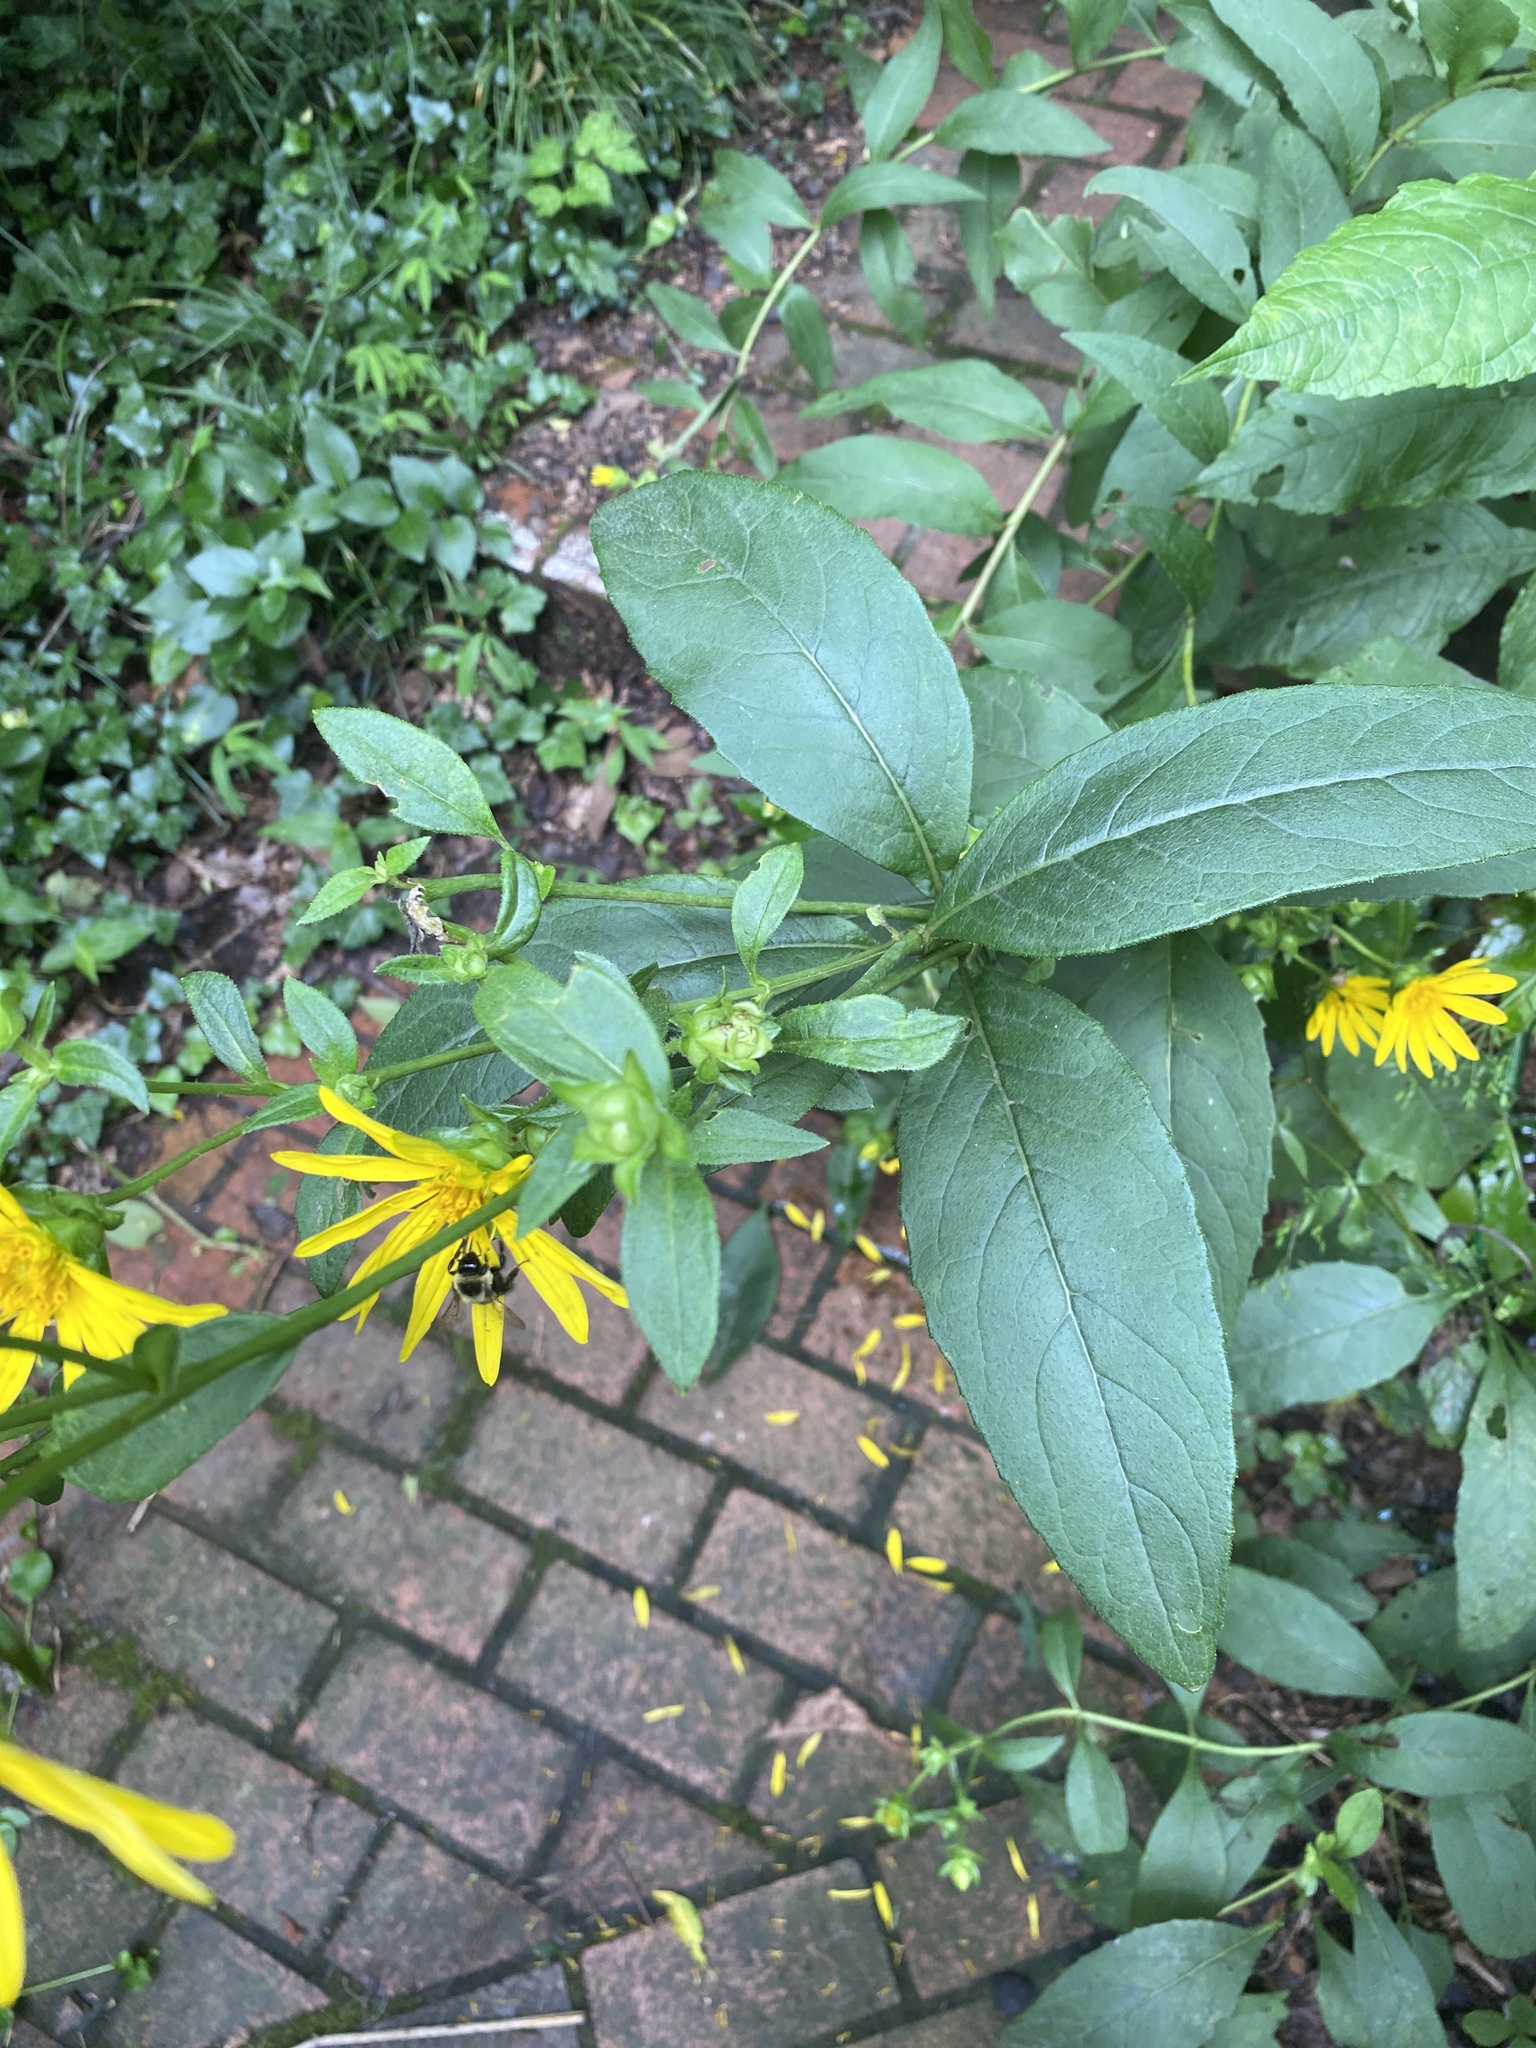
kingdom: Plantae
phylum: Tracheophyta
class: Magnoliopsida
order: Asterales
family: Asteraceae
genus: Silphium
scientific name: Silphium asteriscus
